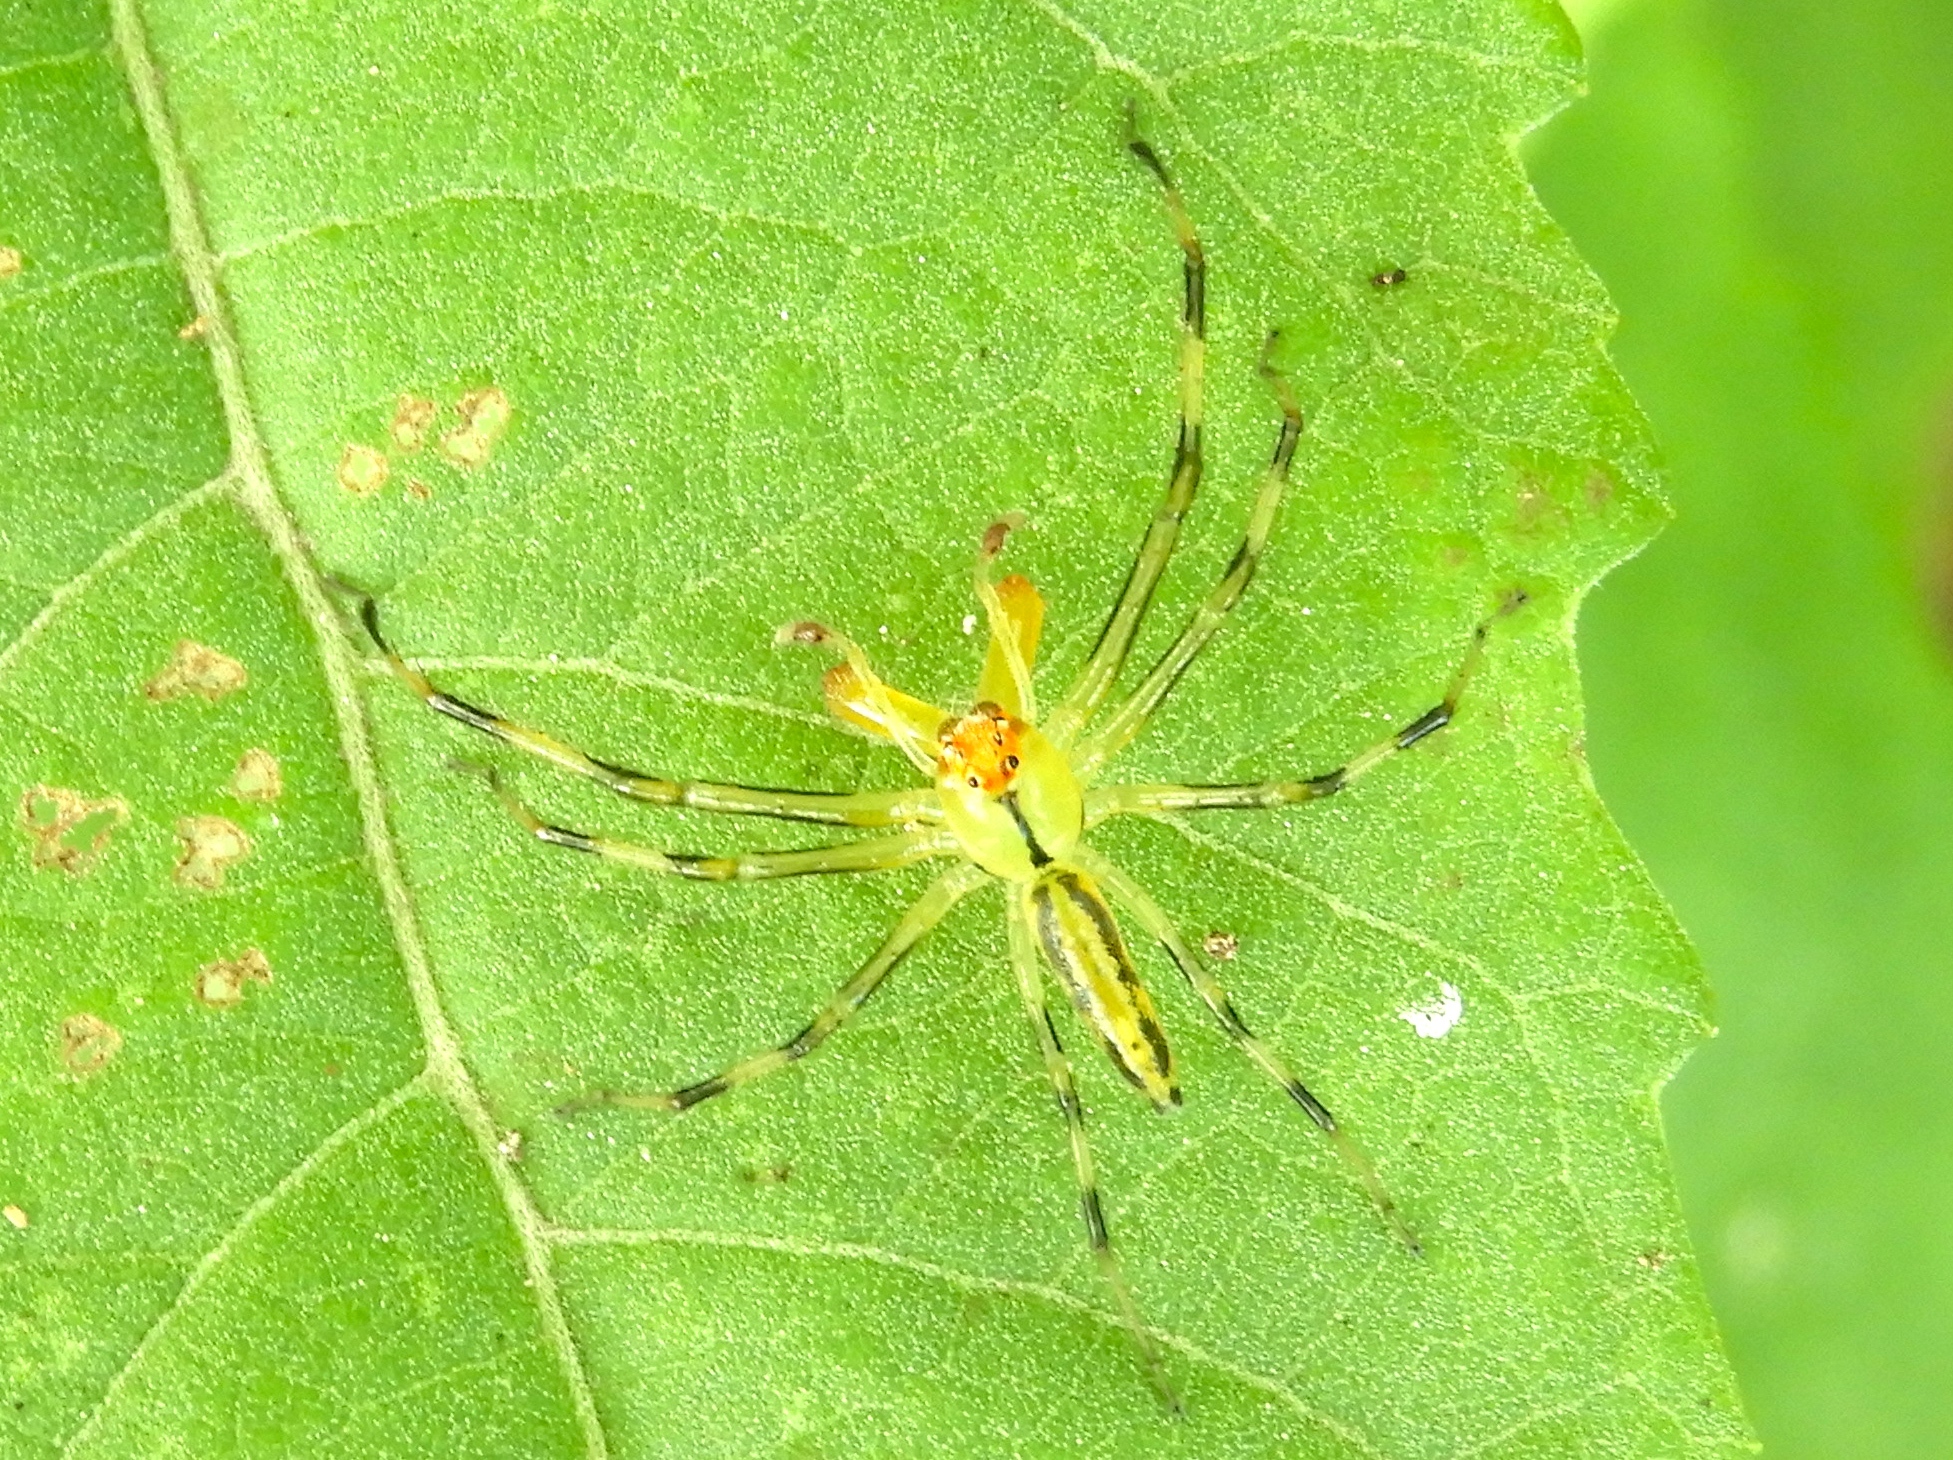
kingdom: Animalia
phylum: Arthropoda
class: Arachnida
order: Araneae
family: Salticidae
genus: Lyssomanes
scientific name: Lyssomanes
